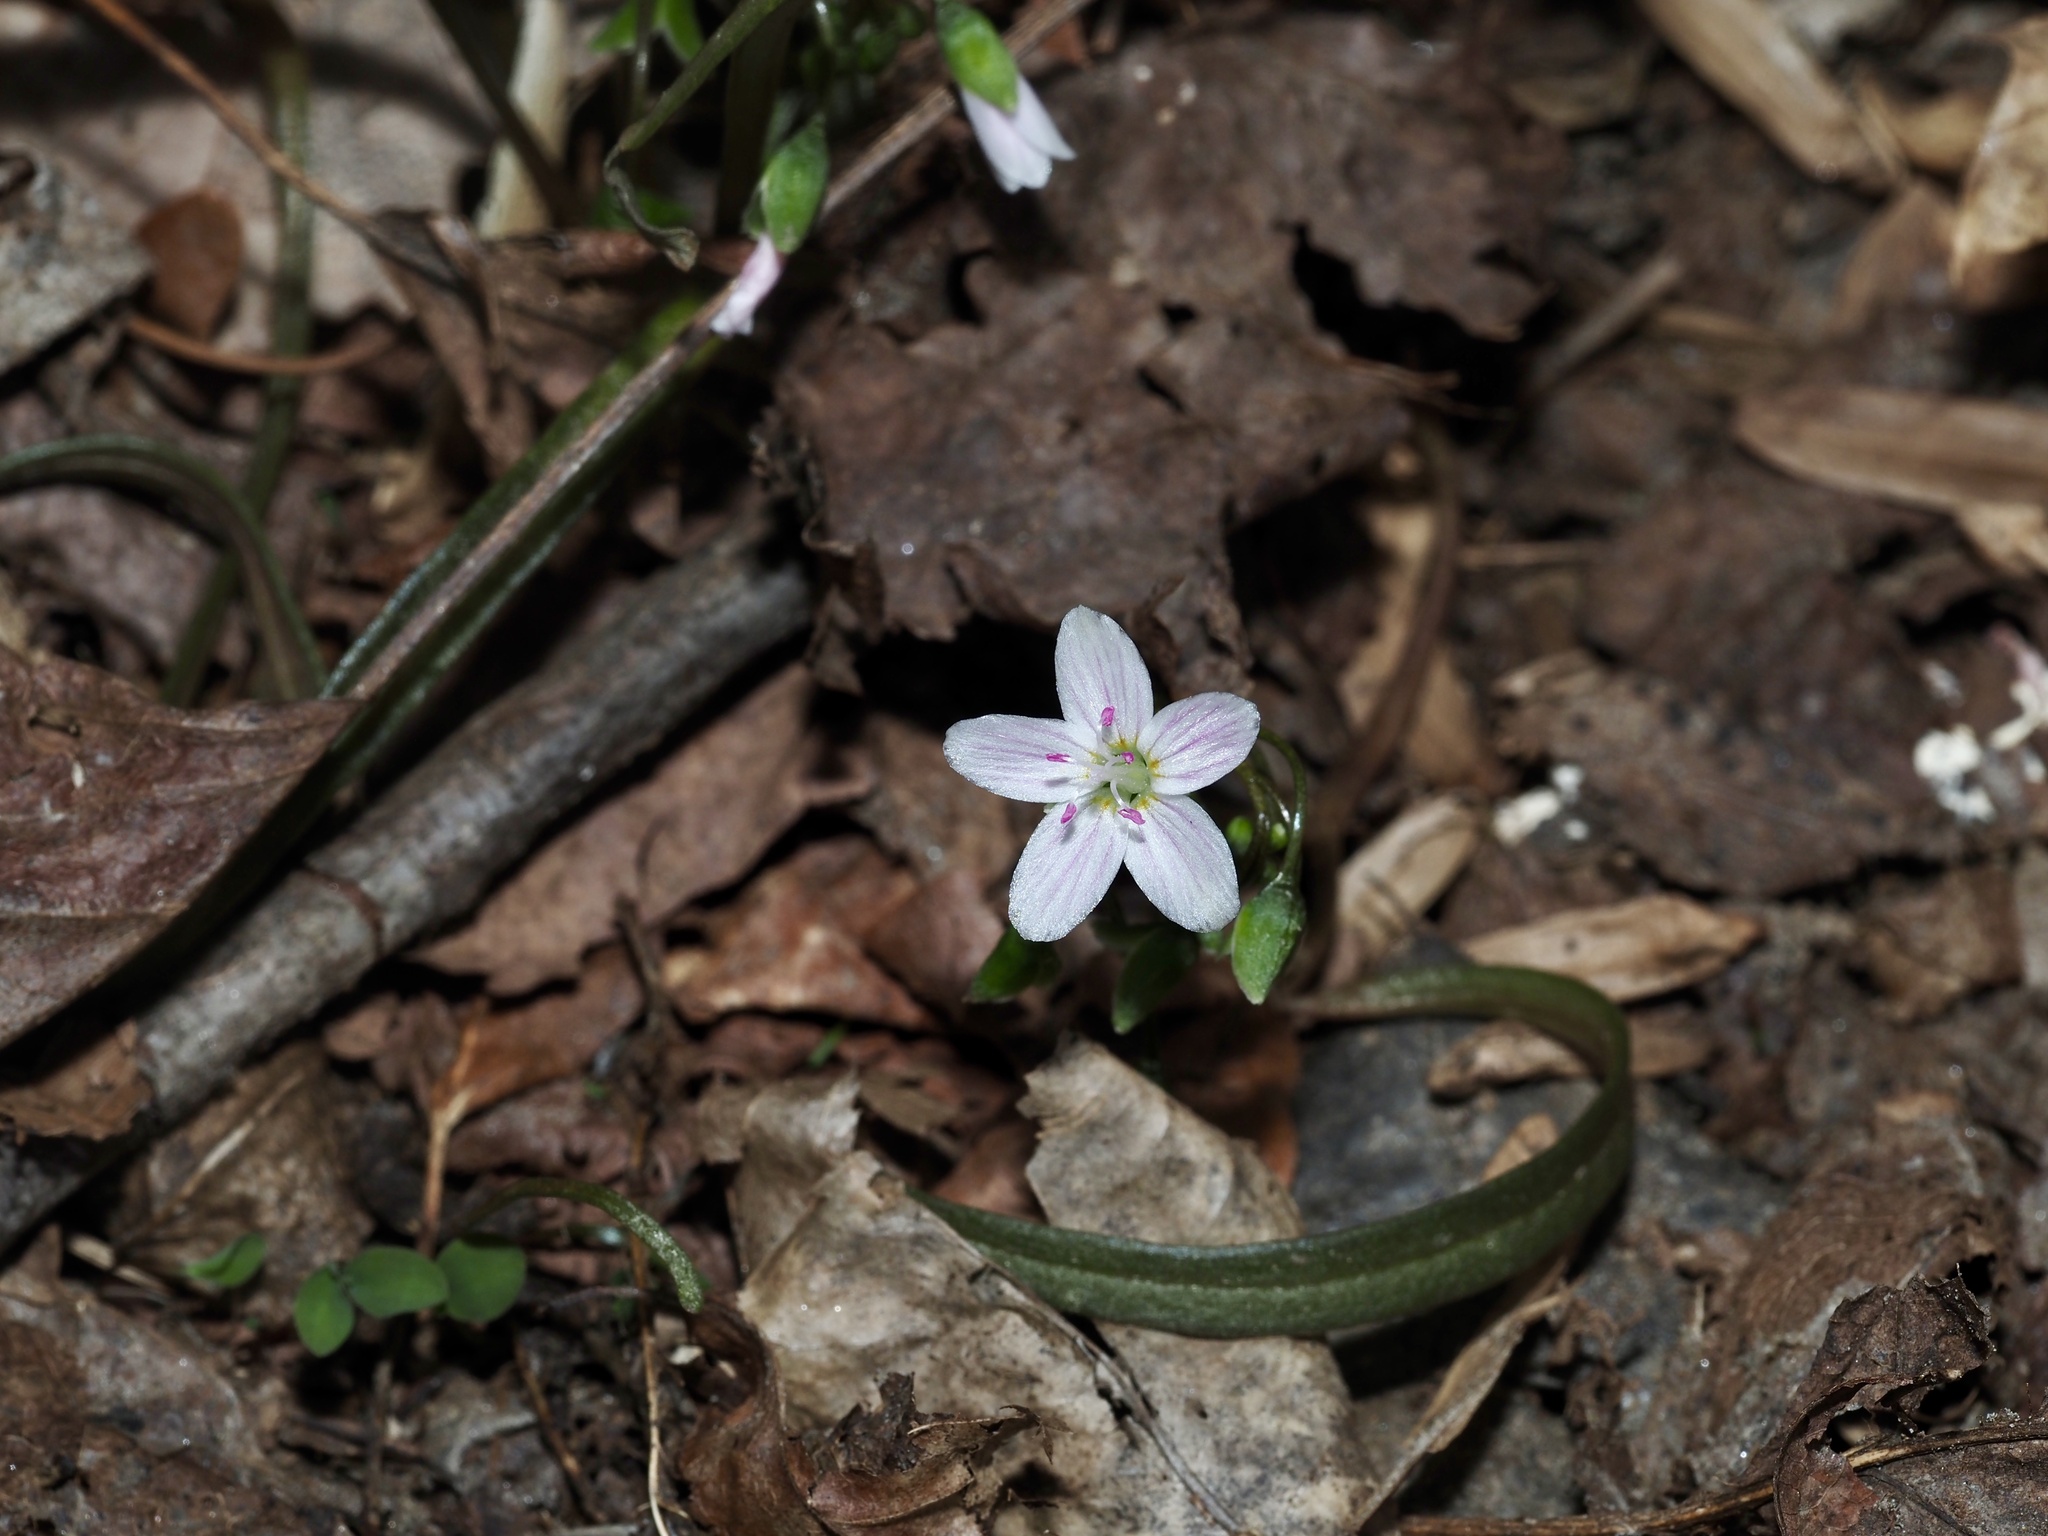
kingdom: Plantae
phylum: Tracheophyta
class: Magnoliopsida
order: Caryophyllales
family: Montiaceae
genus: Claytonia
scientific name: Claytonia virginica
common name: Virginia springbeauty
